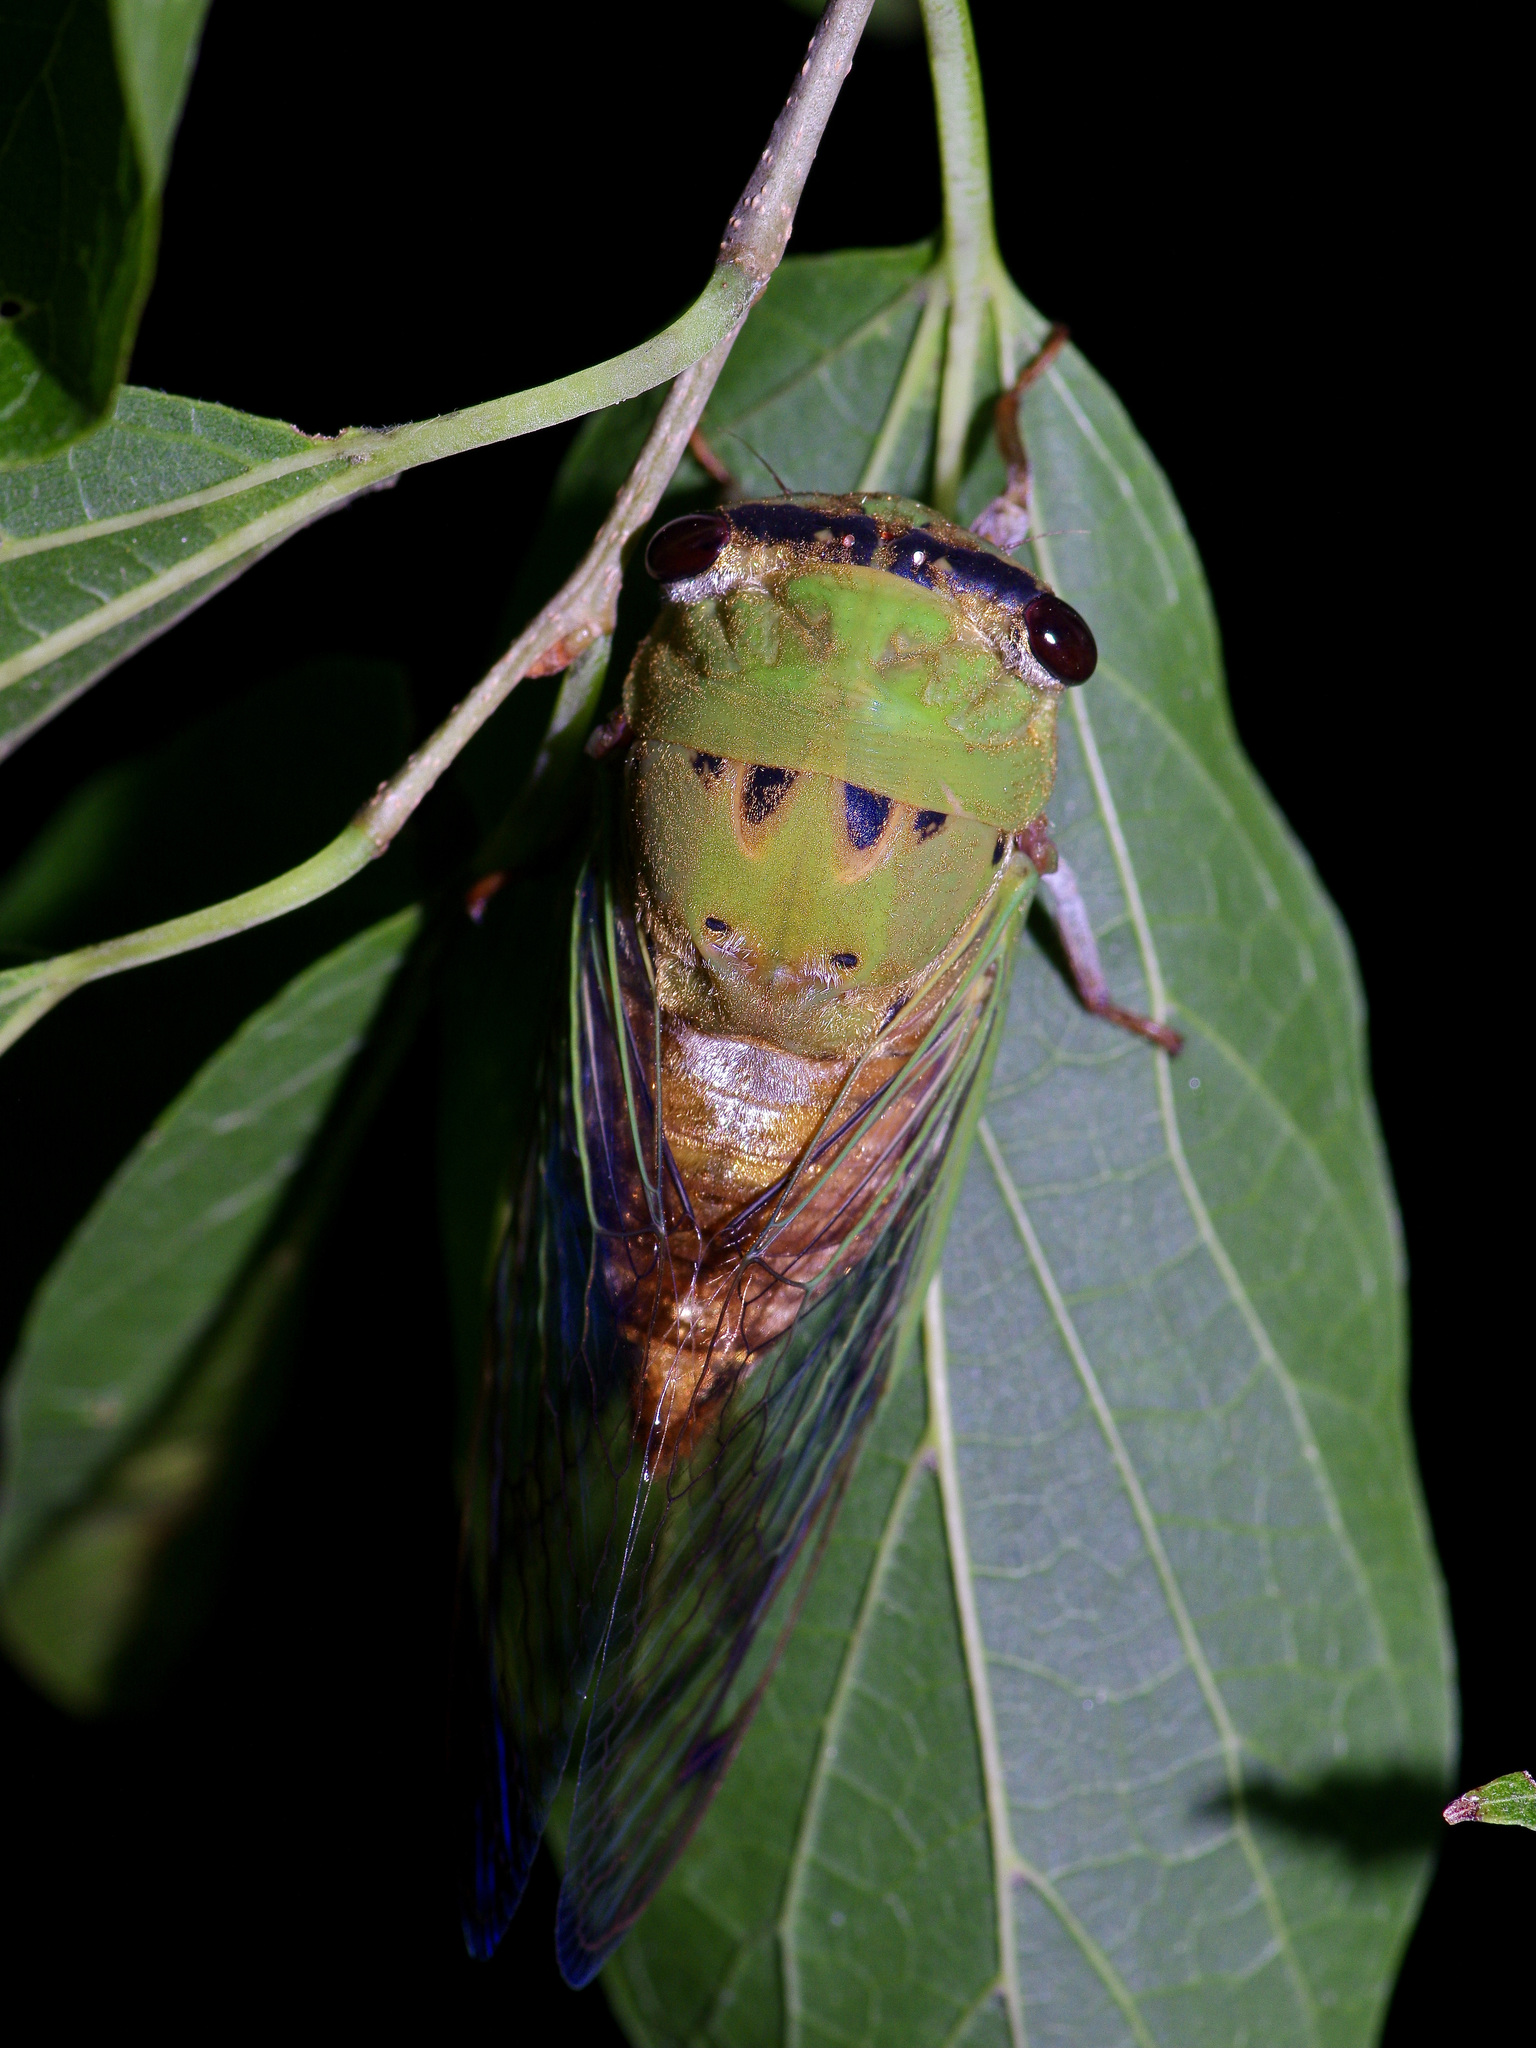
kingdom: Animalia
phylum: Arthropoda
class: Insecta
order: Hemiptera
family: Cicadidae
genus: Neotibicen
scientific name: Neotibicen superbus
